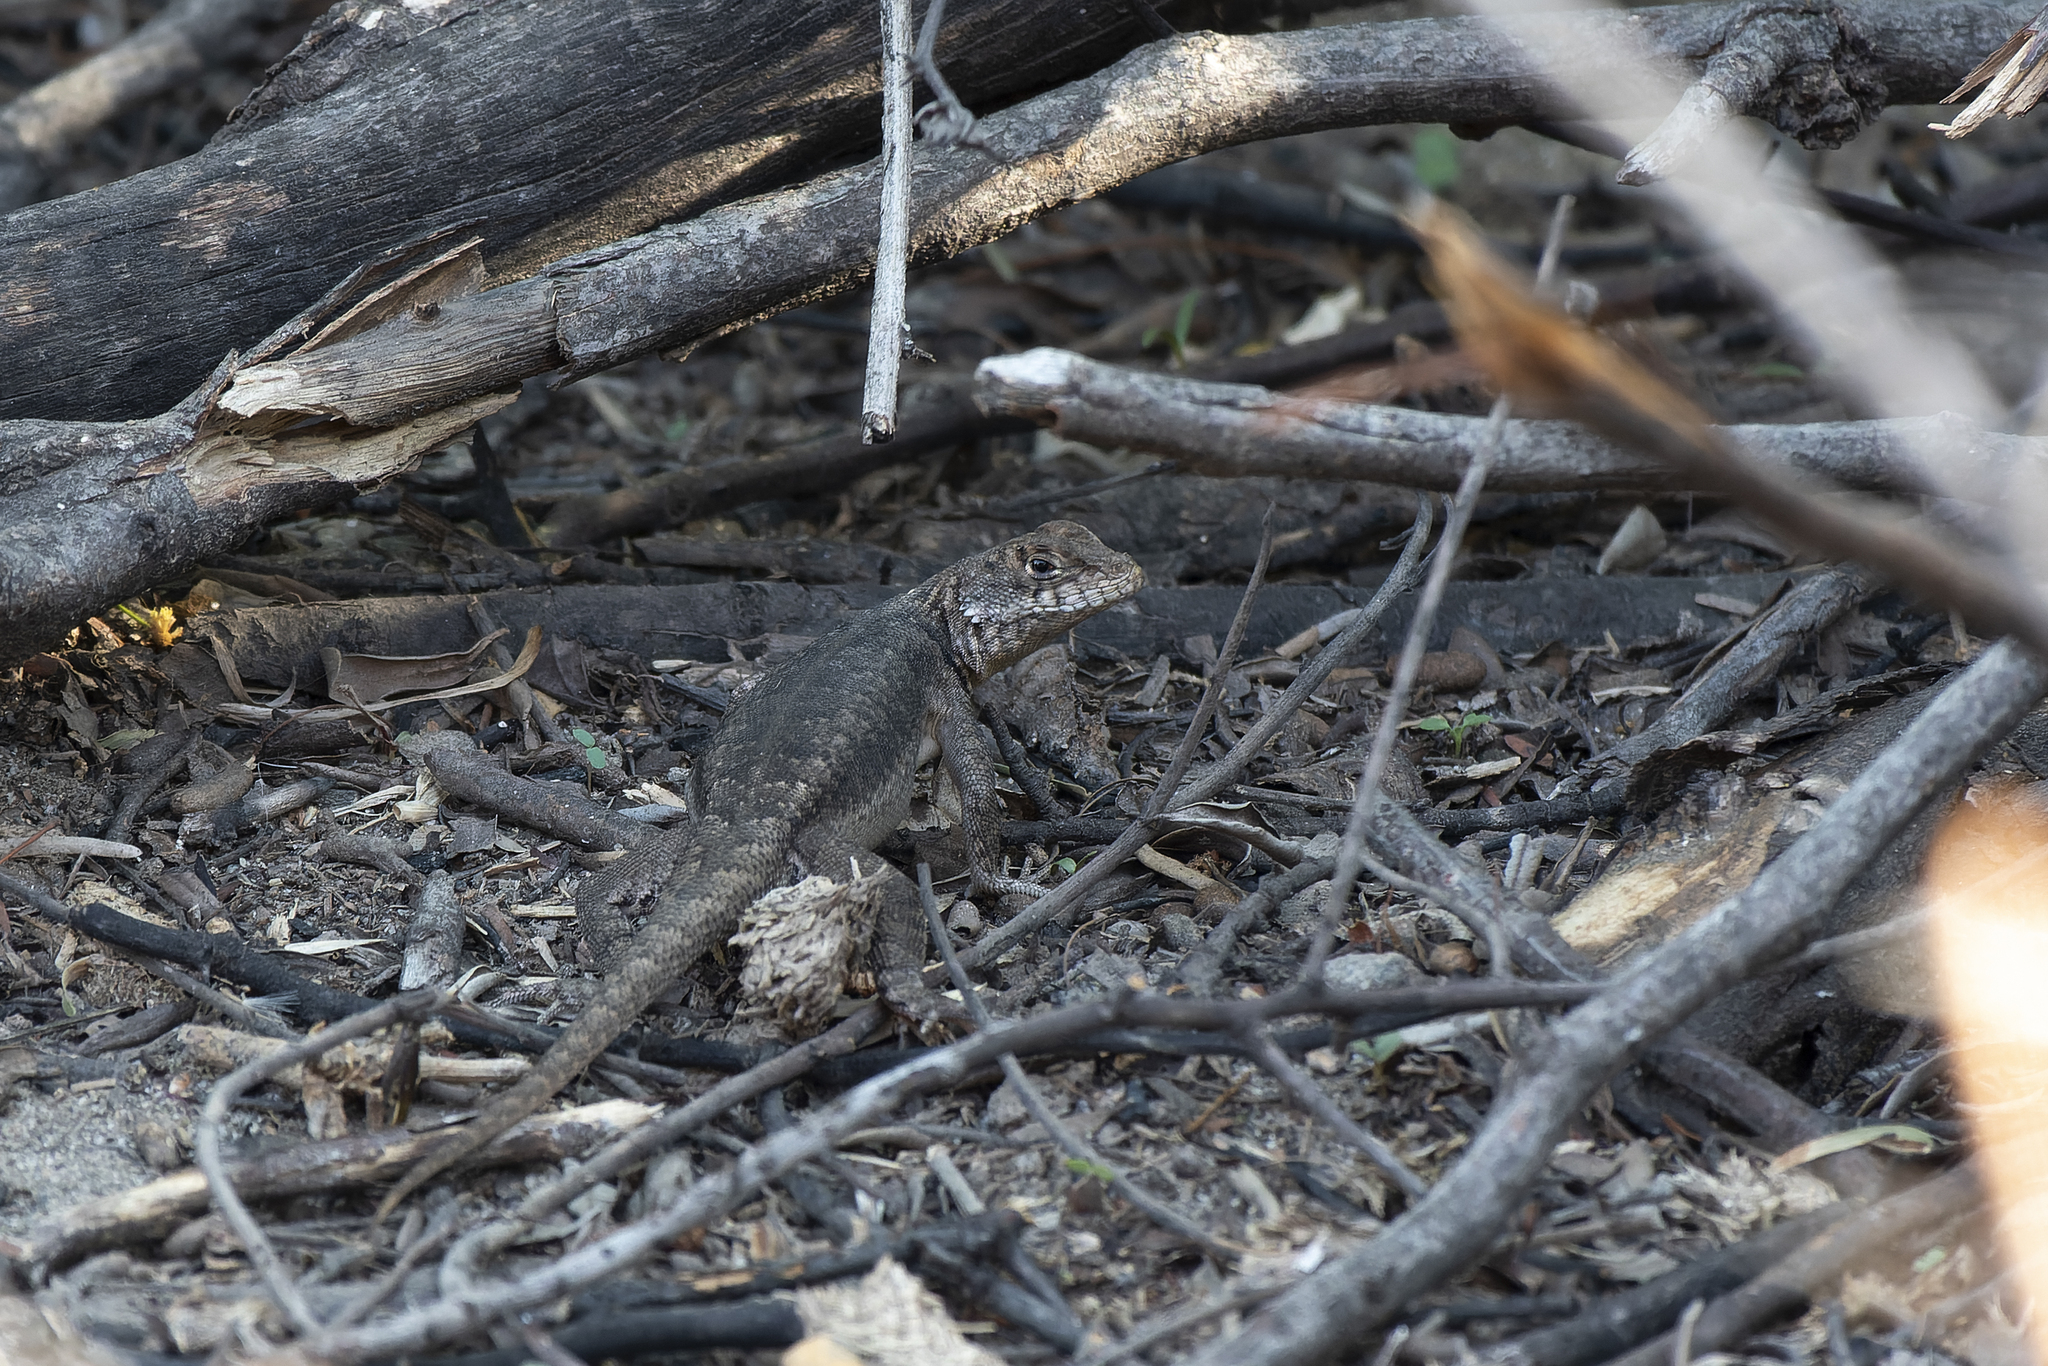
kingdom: Animalia
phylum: Chordata
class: Squamata
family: Tropiduridae
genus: Tropidurus
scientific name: Tropidurus etheridgei
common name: Etheridge's lava lizard
